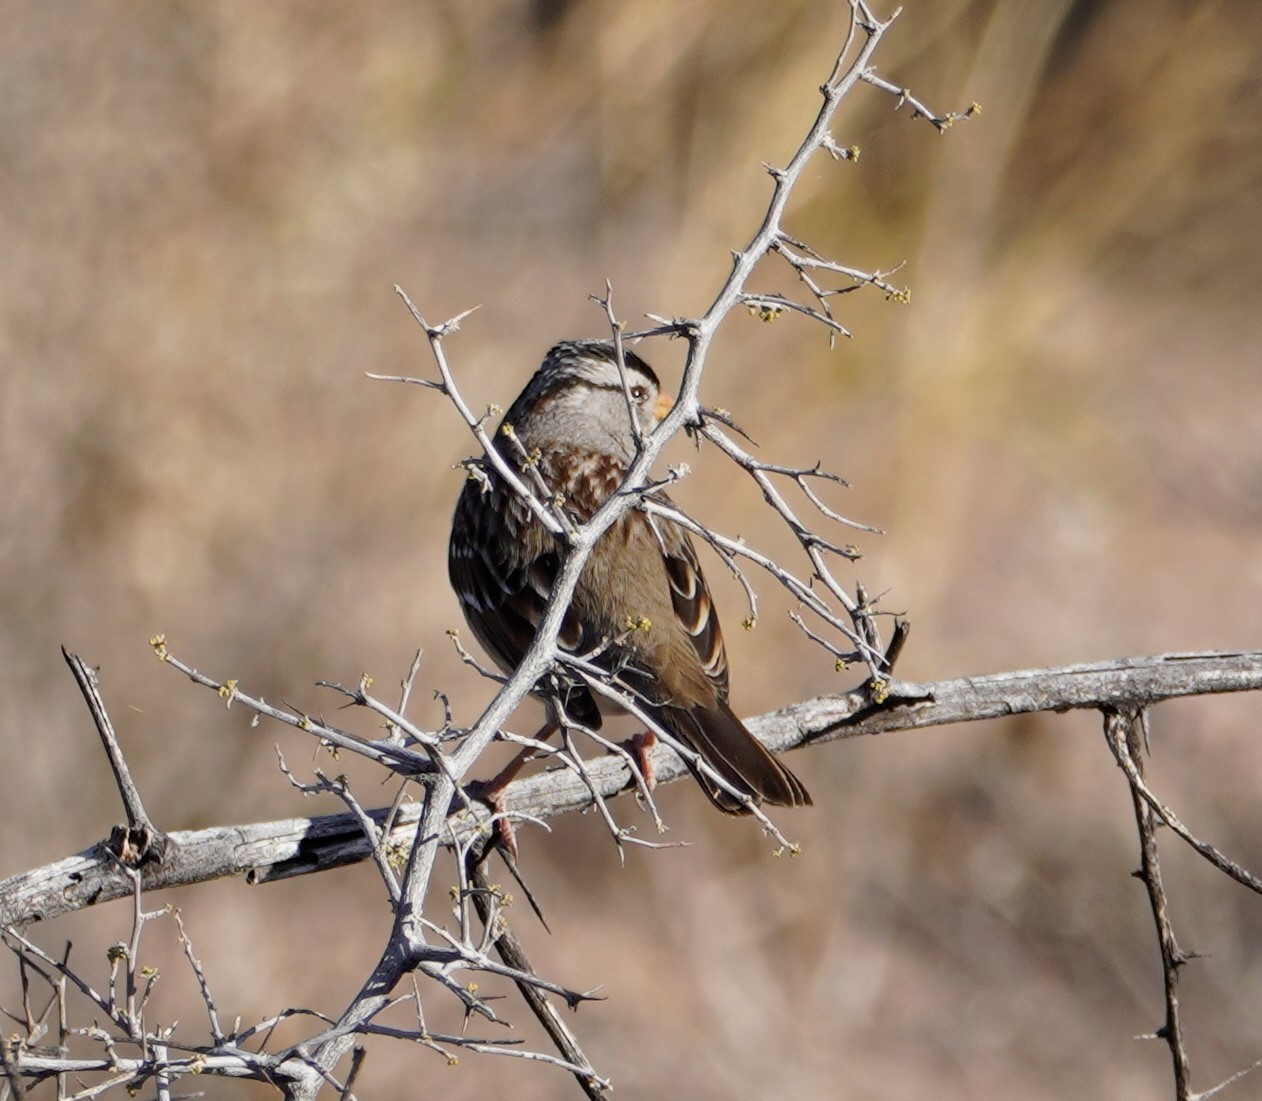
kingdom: Animalia
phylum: Chordata
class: Aves
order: Passeriformes
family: Passerellidae
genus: Zonotrichia
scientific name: Zonotrichia leucophrys
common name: White-crowned sparrow
